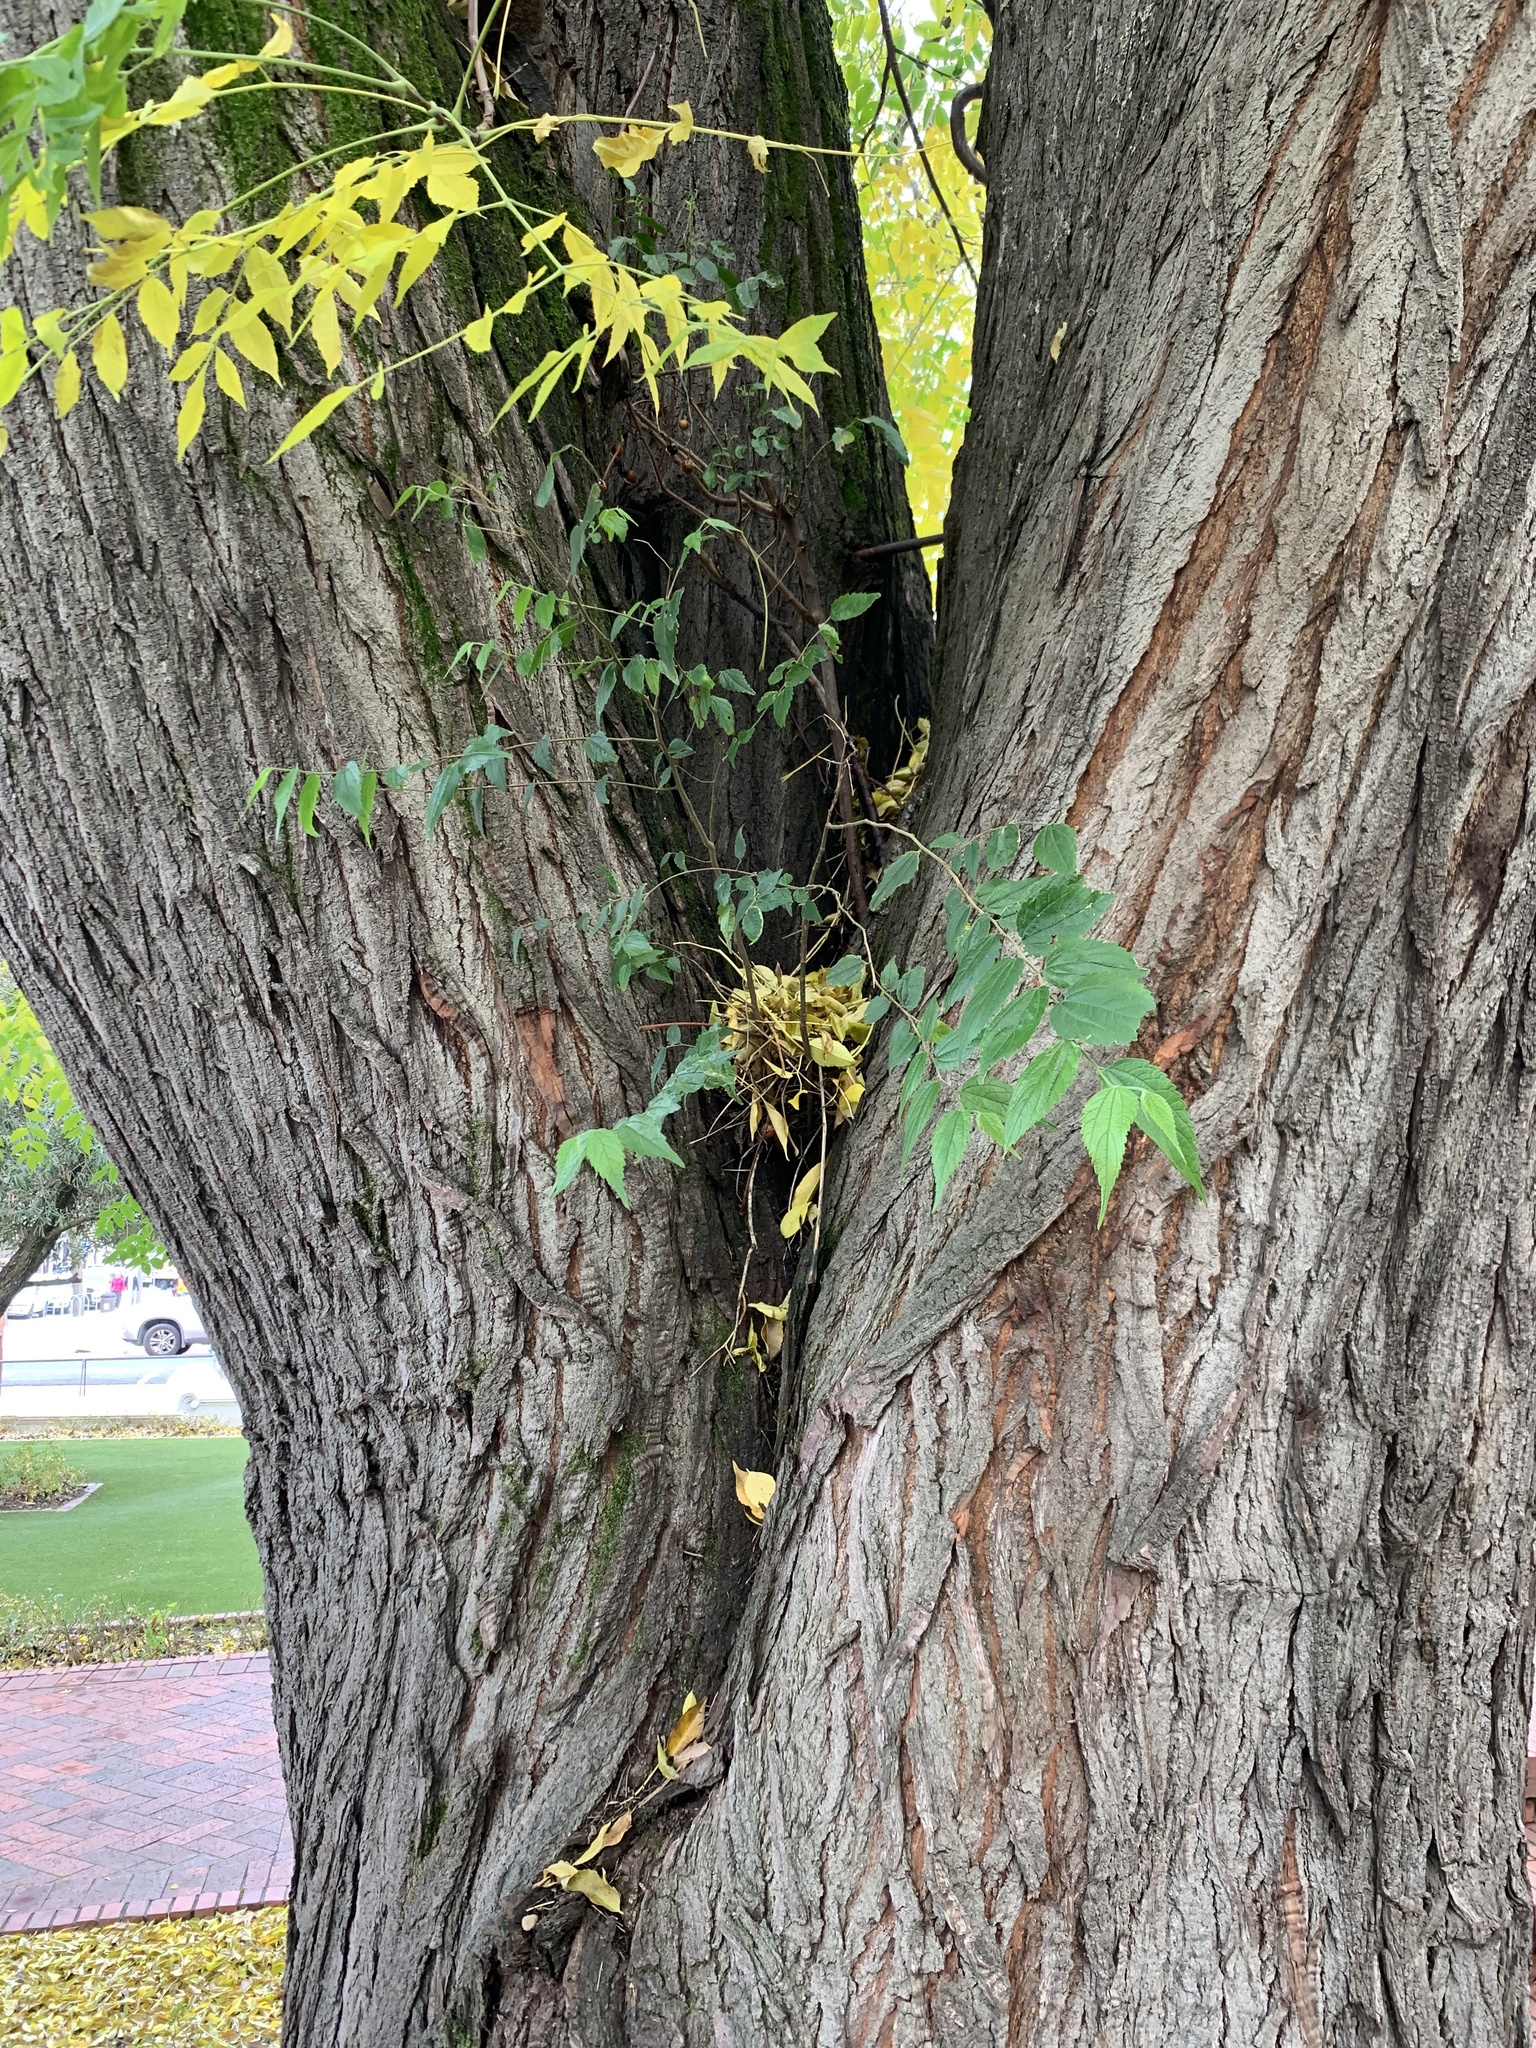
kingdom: Plantae
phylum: Tracheophyta
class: Magnoliopsida
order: Rosales
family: Cannabaceae
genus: Celtis
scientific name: Celtis africana
